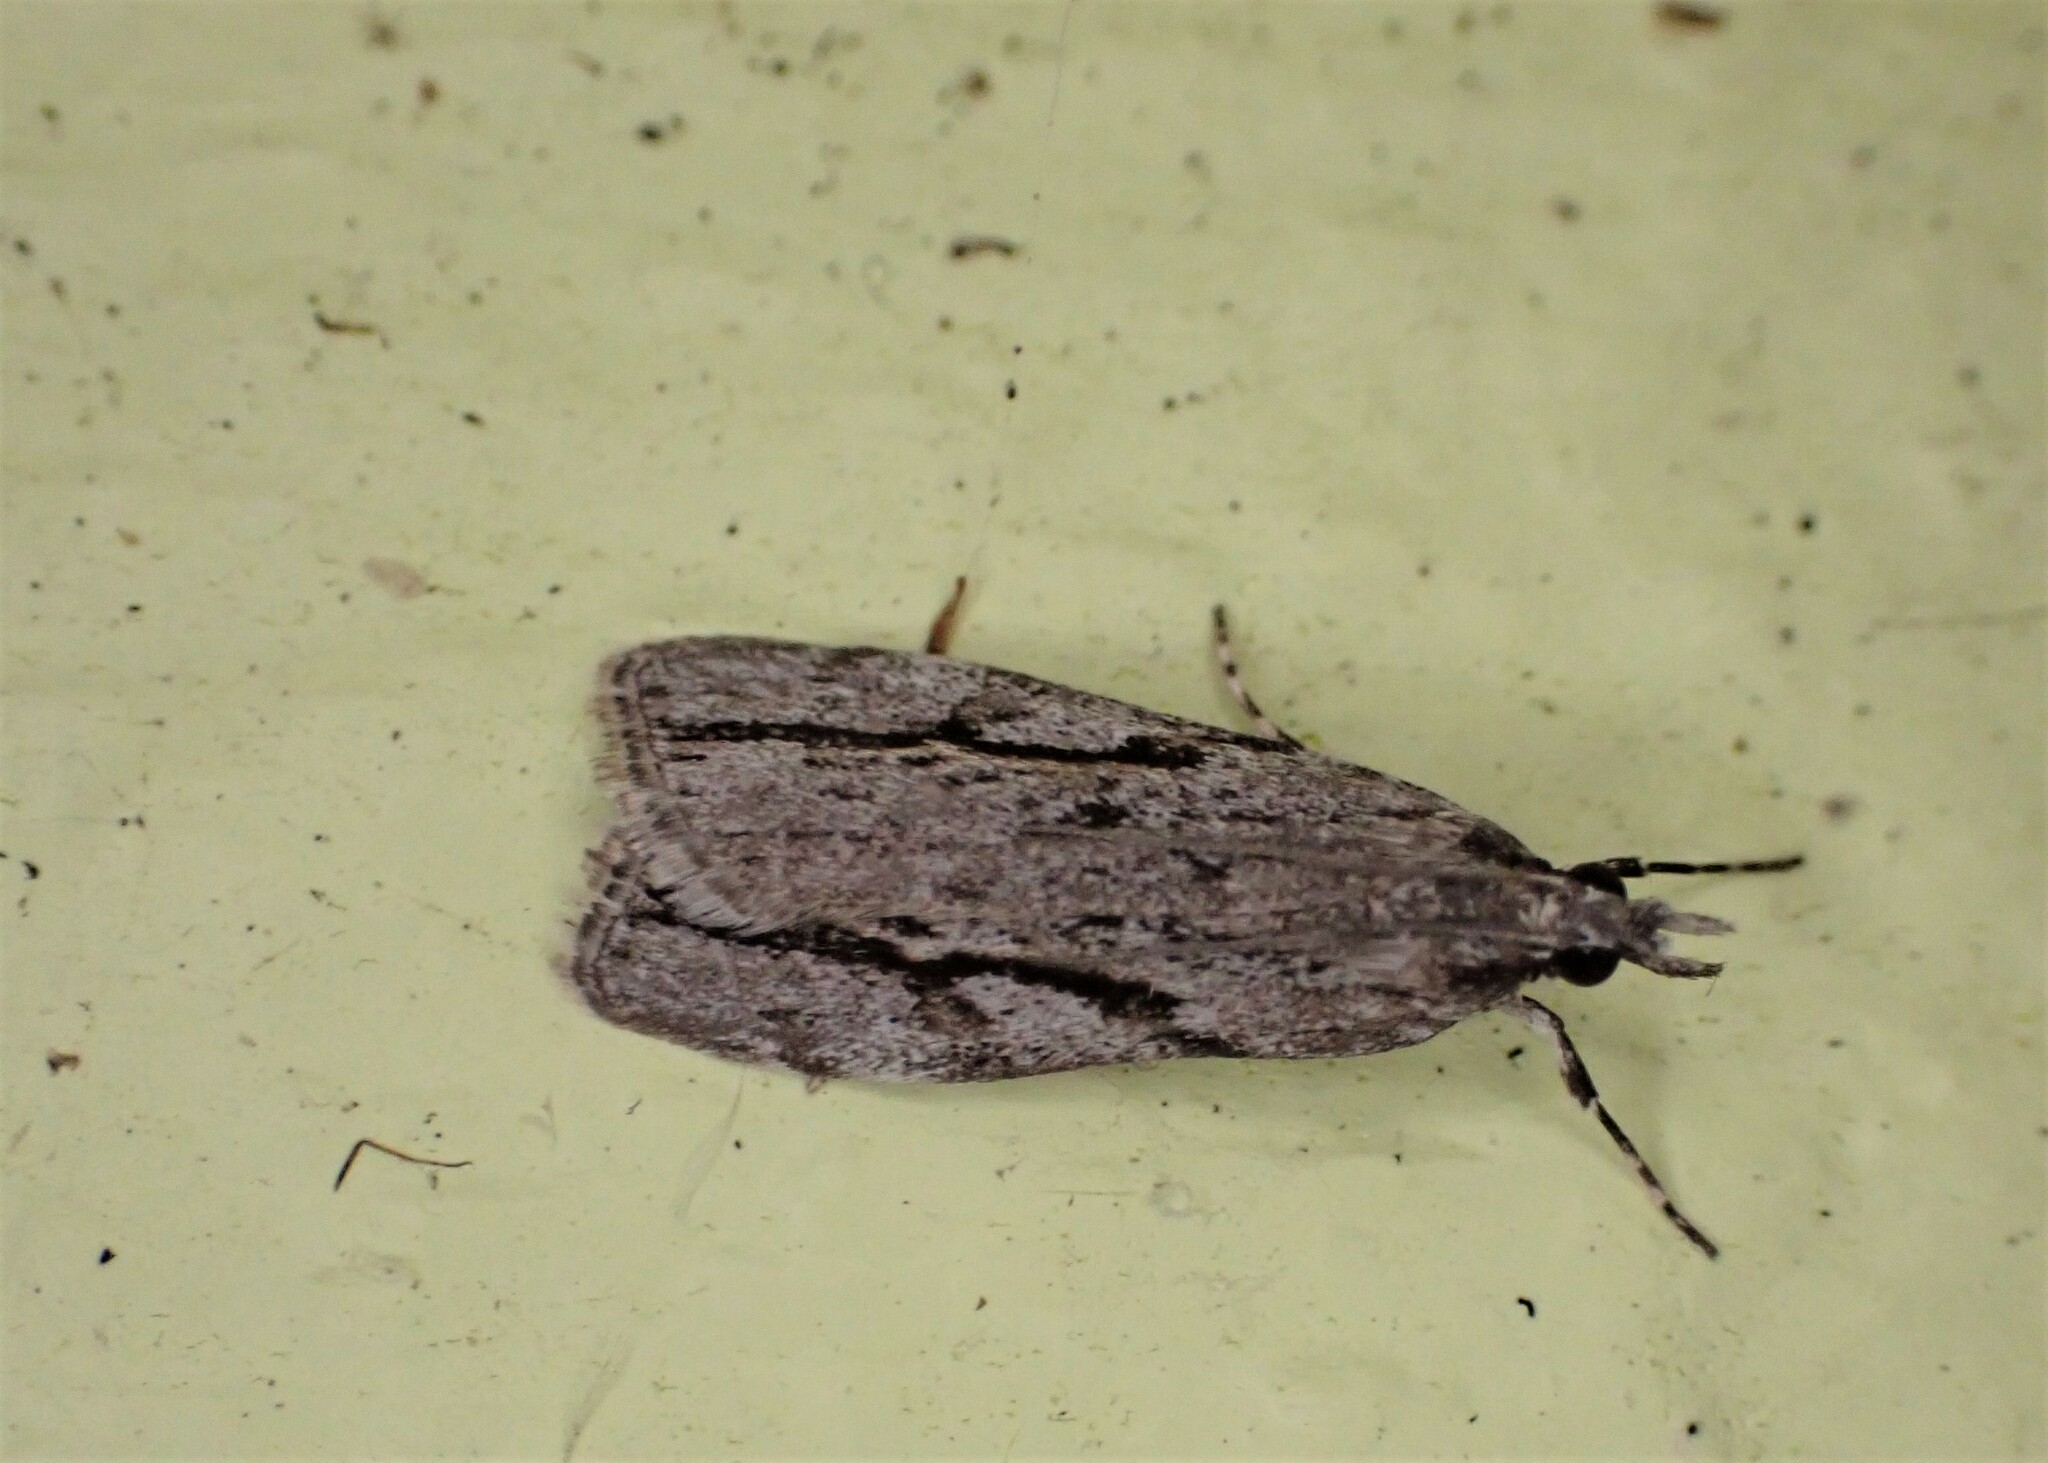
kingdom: Animalia
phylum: Arthropoda
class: Insecta
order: Lepidoptera
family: Crambidae
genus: Eudonia
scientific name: Eudonia bisinualis
